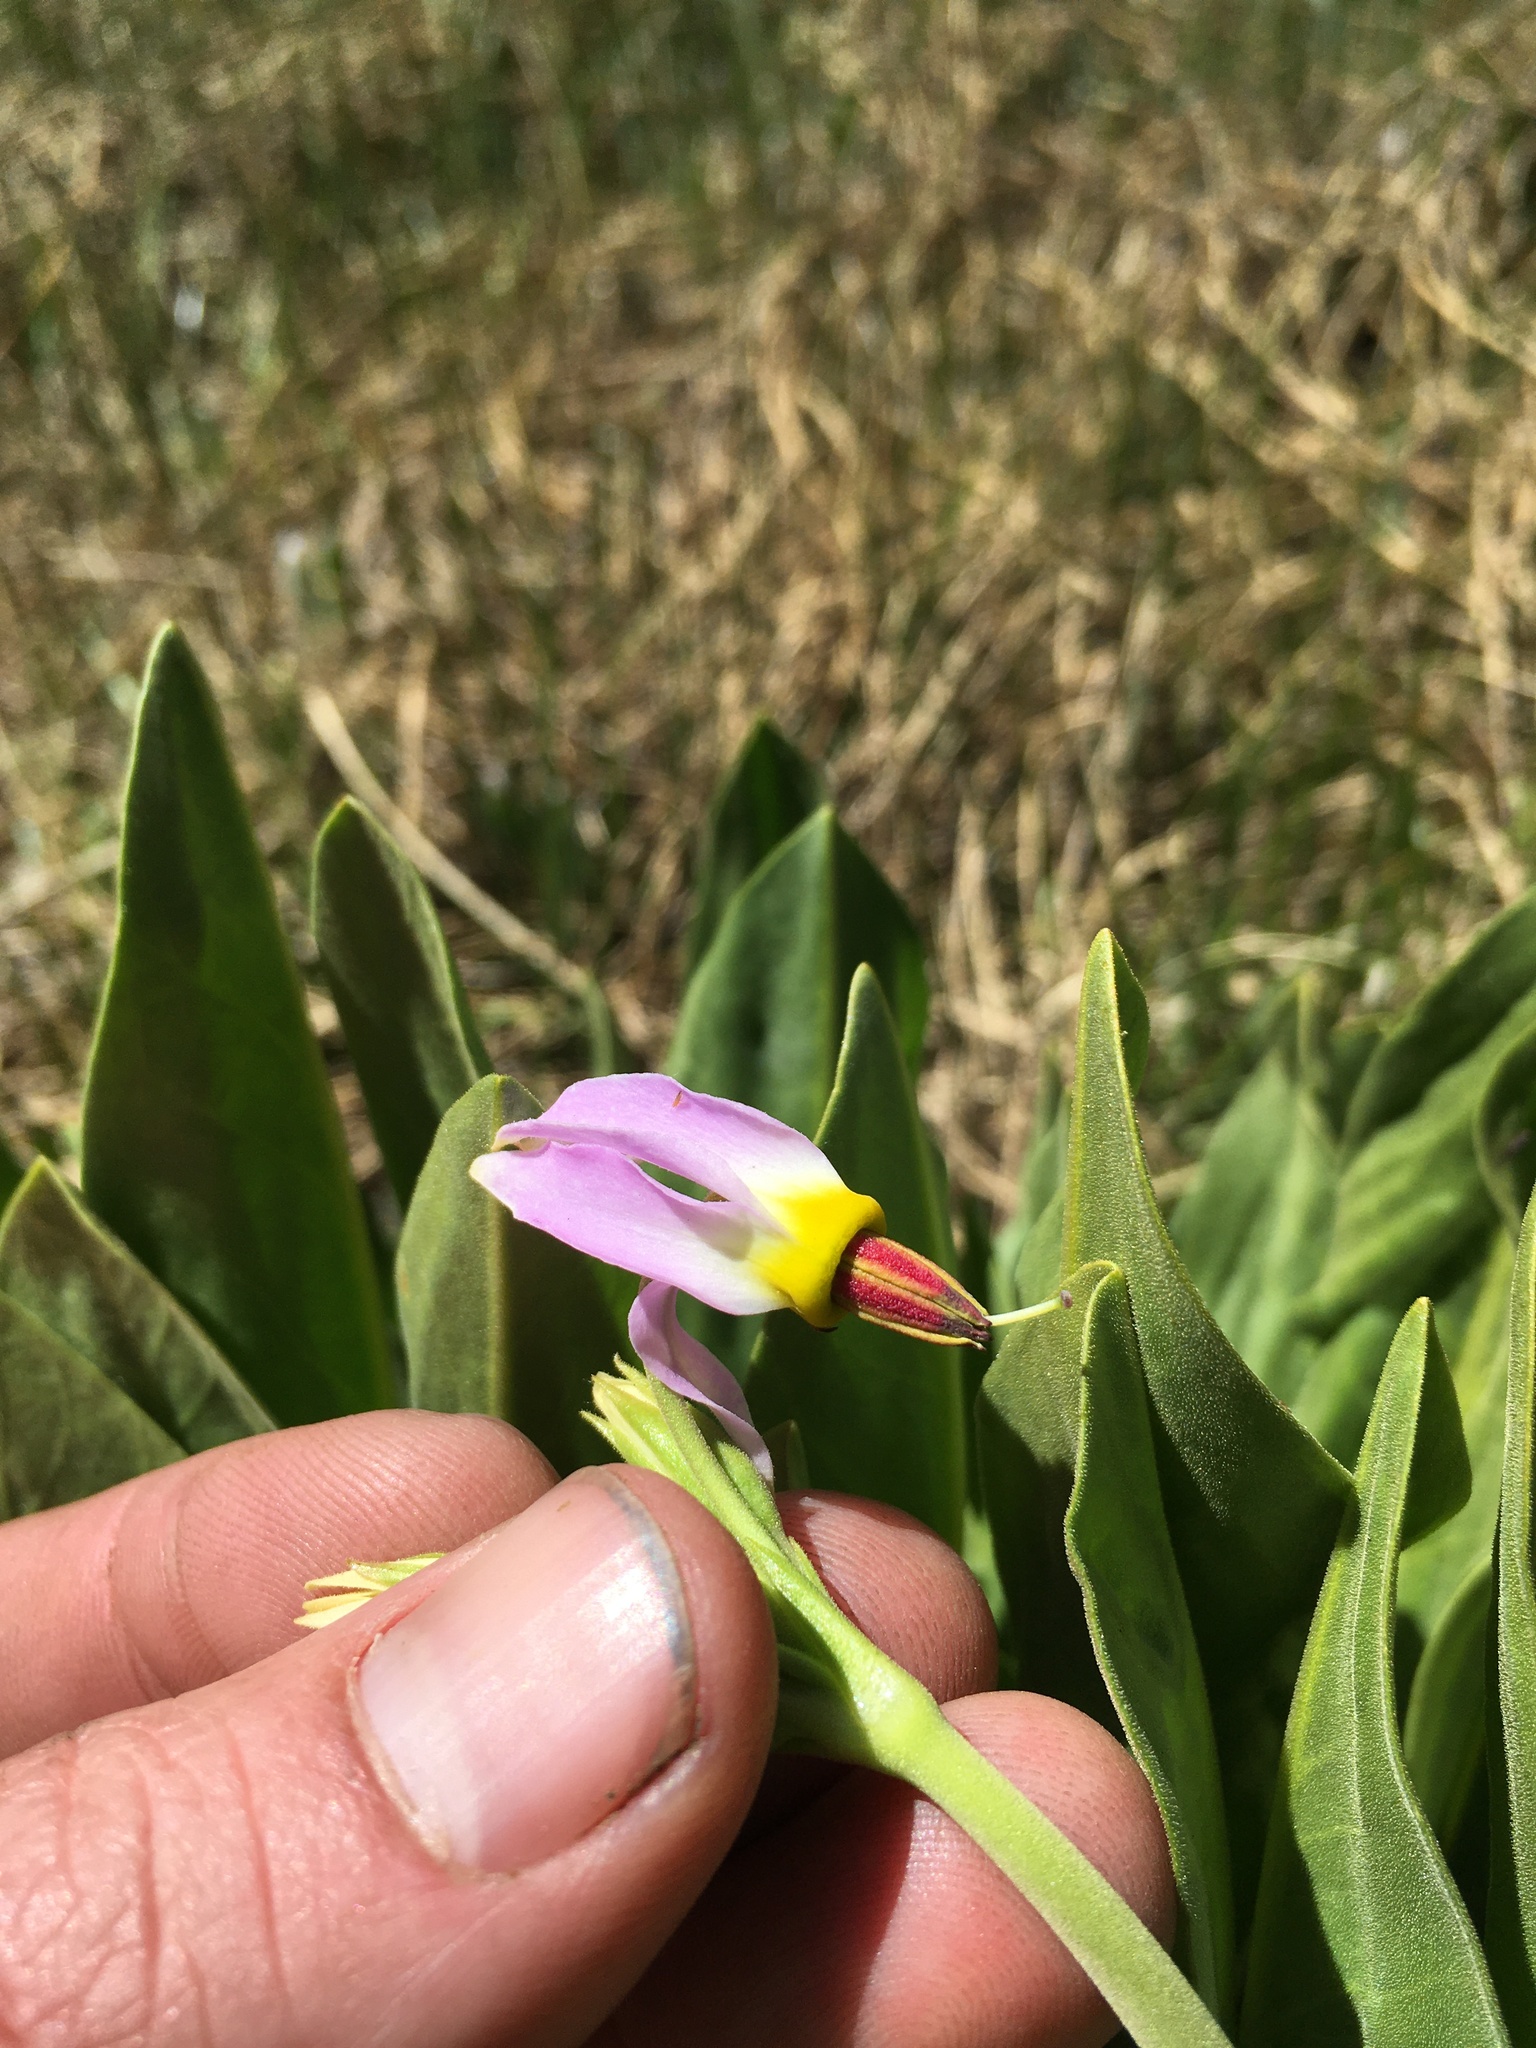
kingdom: Plantae
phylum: Tracheophyta
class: Magnoliopsida
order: Ericales
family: Primulaceae
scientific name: Primulaceae
